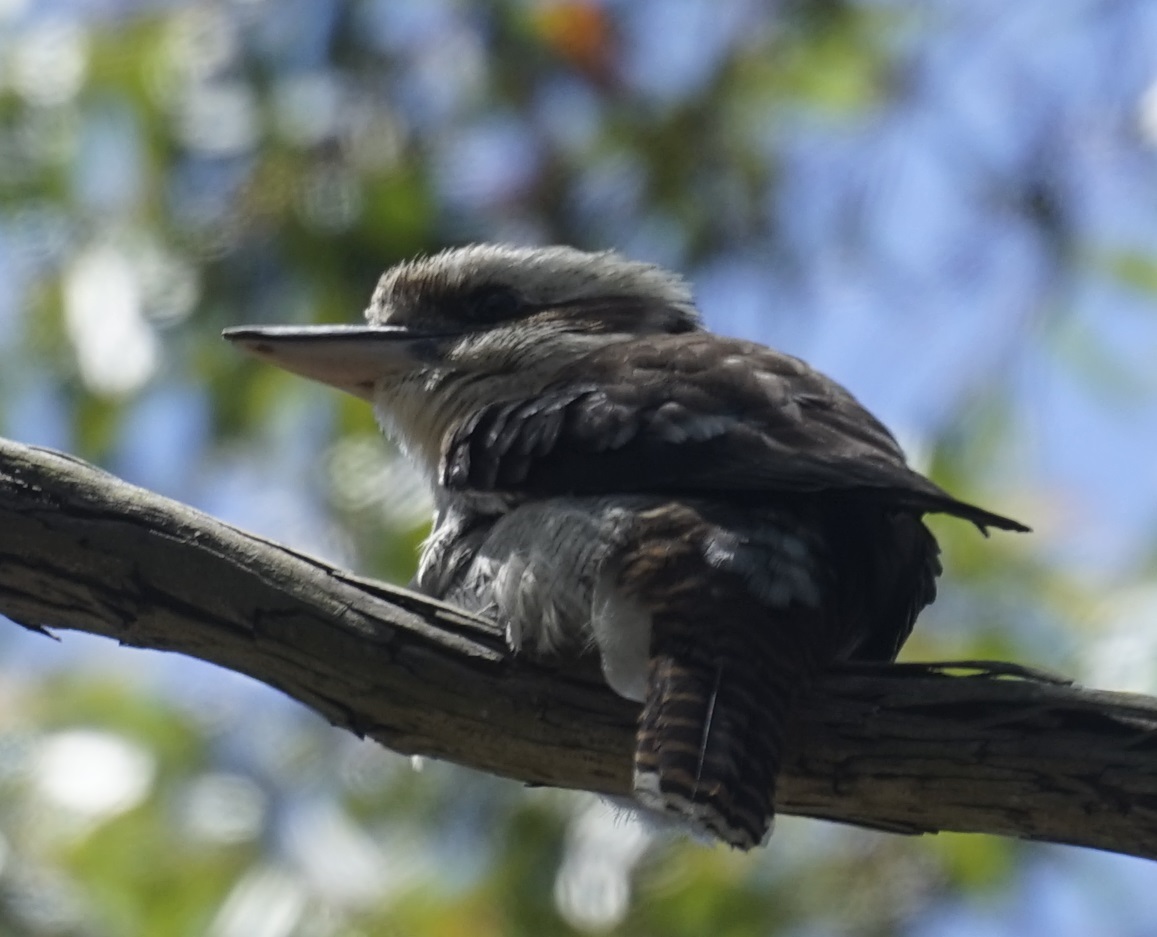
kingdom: Animalia
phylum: Chordata
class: Aves
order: Coraciiformes
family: Alcedinidae
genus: Dacelo
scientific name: Dacelo novaeguineae
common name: Laughing kookaburra
